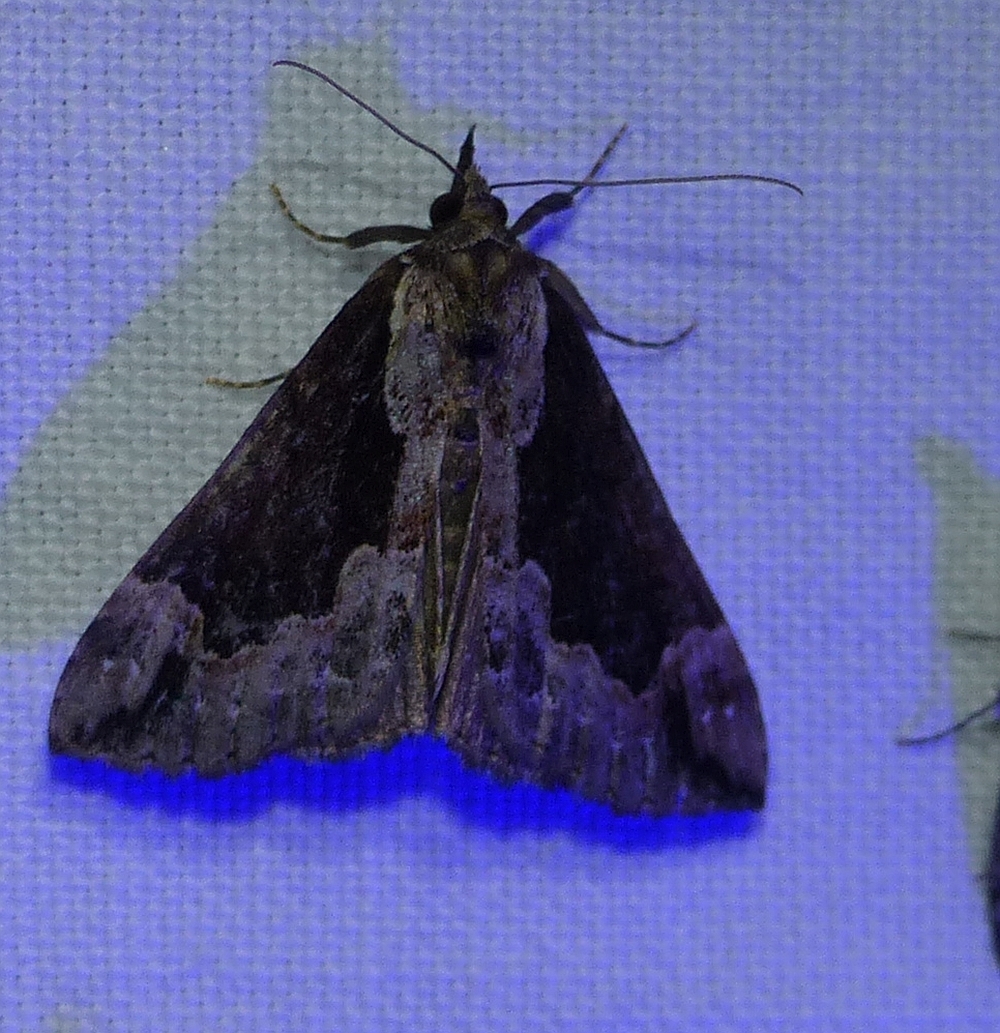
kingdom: Animalia
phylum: Arthropoda
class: Insecta
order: Lepidoptera
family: Erebidae
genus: Hypena
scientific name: Hypena baltimoralis
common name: Baltimore snout
